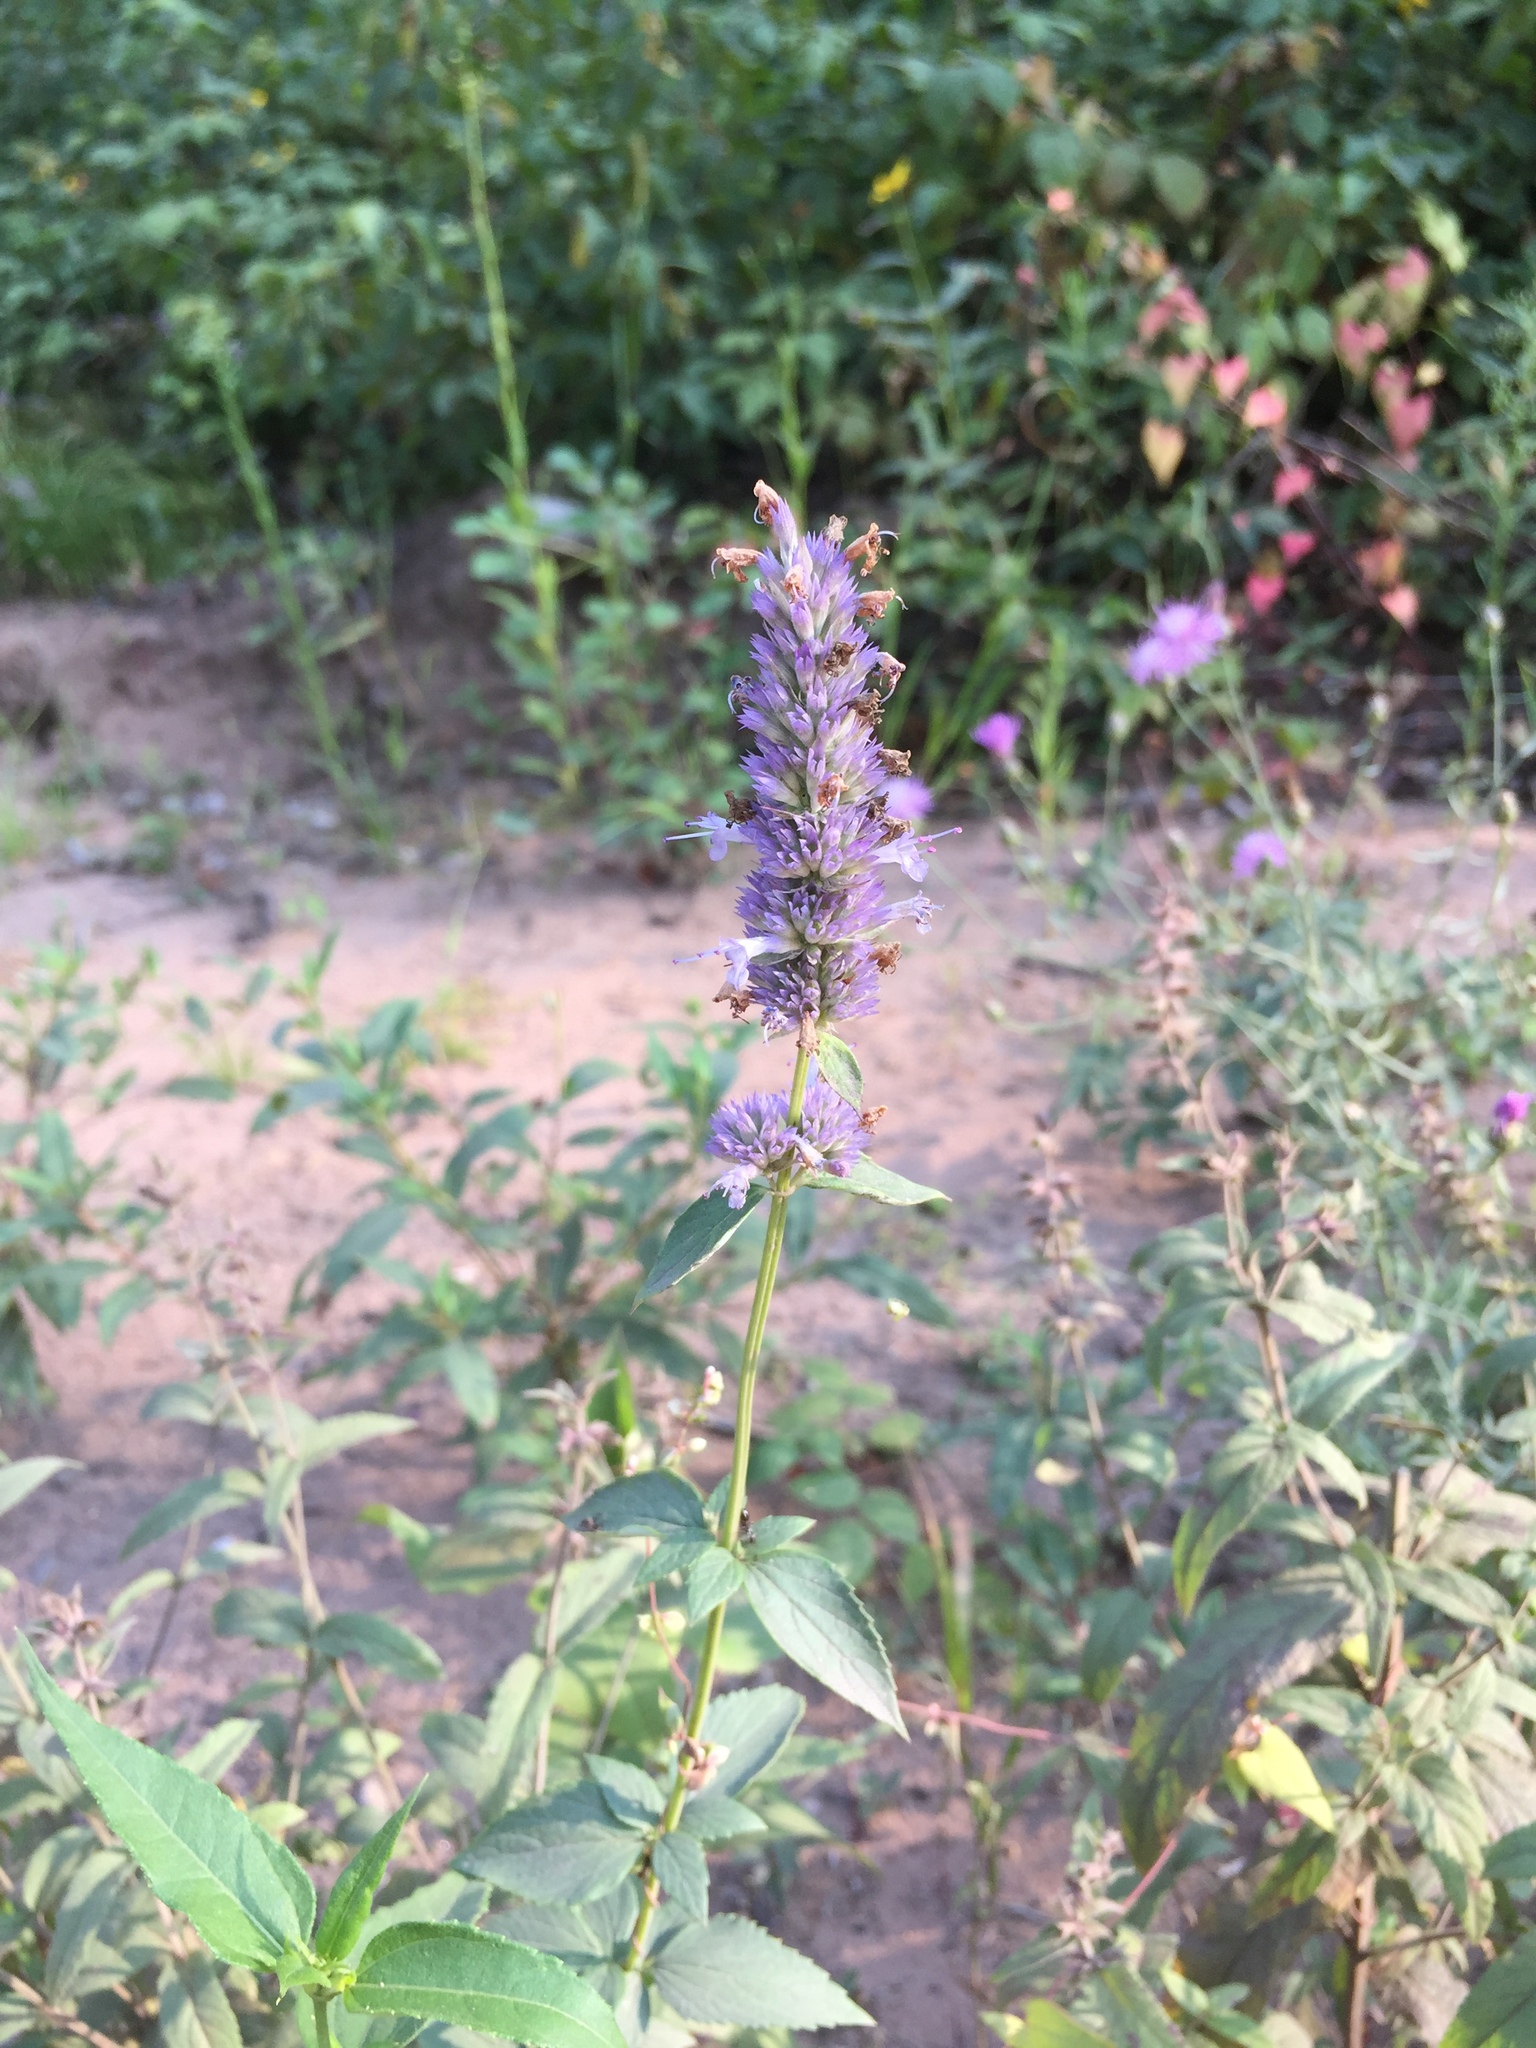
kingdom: Plantae
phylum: Tracheophyta
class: Magnoliopsida
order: Lamiales
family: Lamiaceae
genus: Agastache
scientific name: Agastache foeniculum
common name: Anise hyssop
